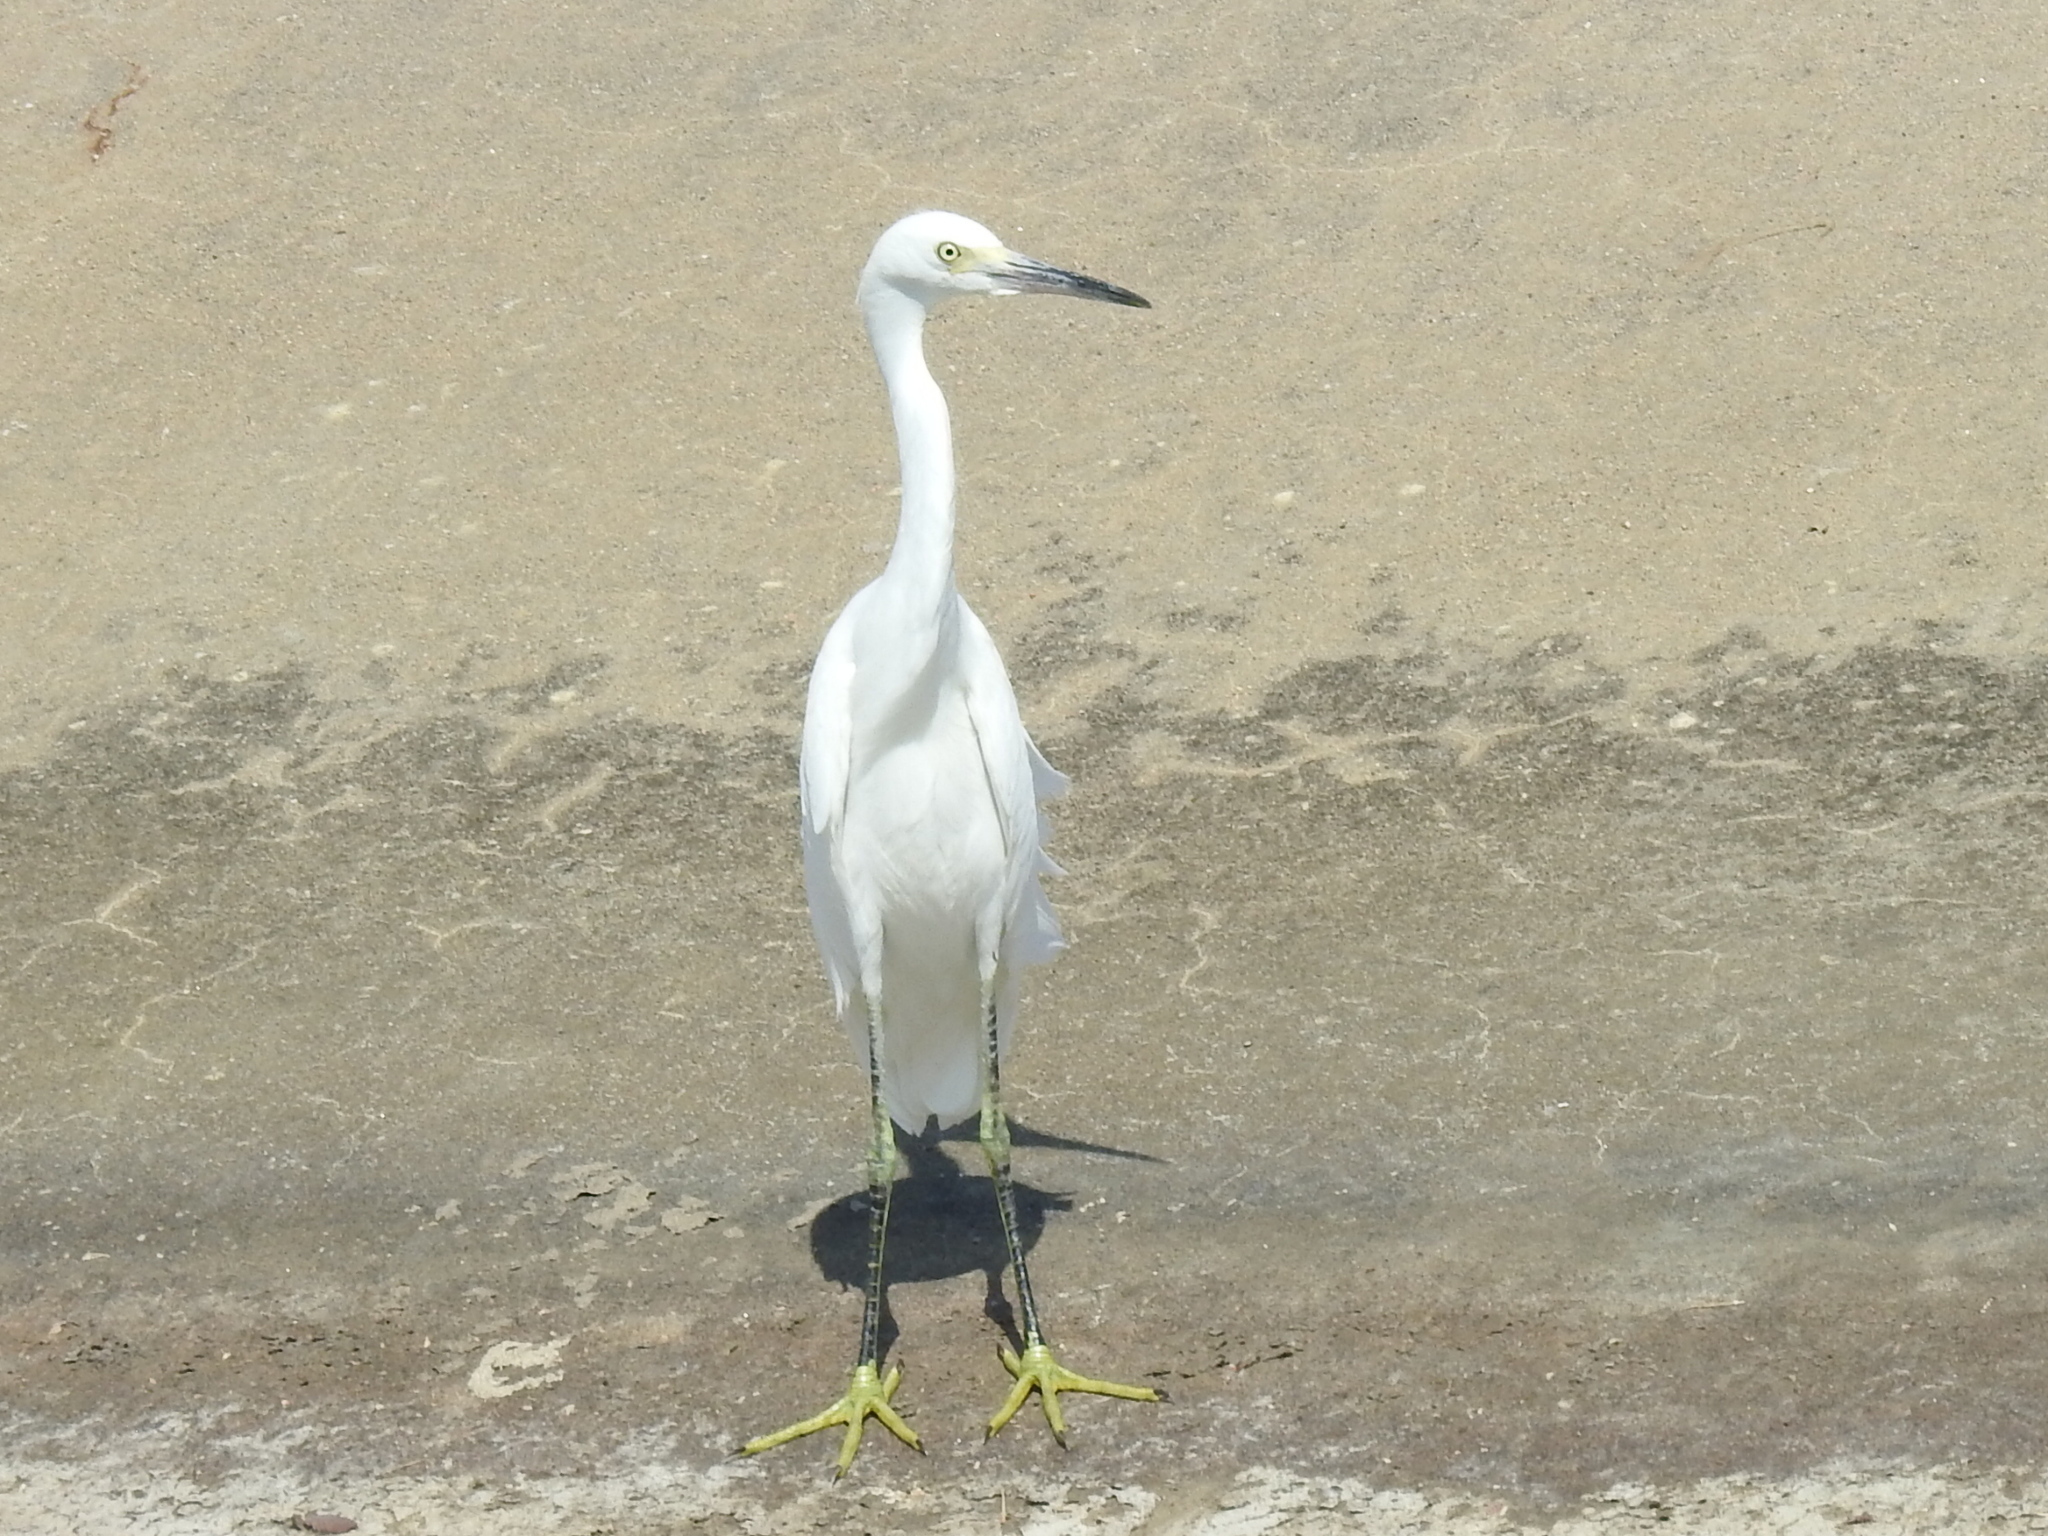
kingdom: Animalia
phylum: Chordata
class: Aves
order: Pelecaniformes
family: Ardeidae
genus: Egretta
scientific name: Egretta thula
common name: Snowy egret
